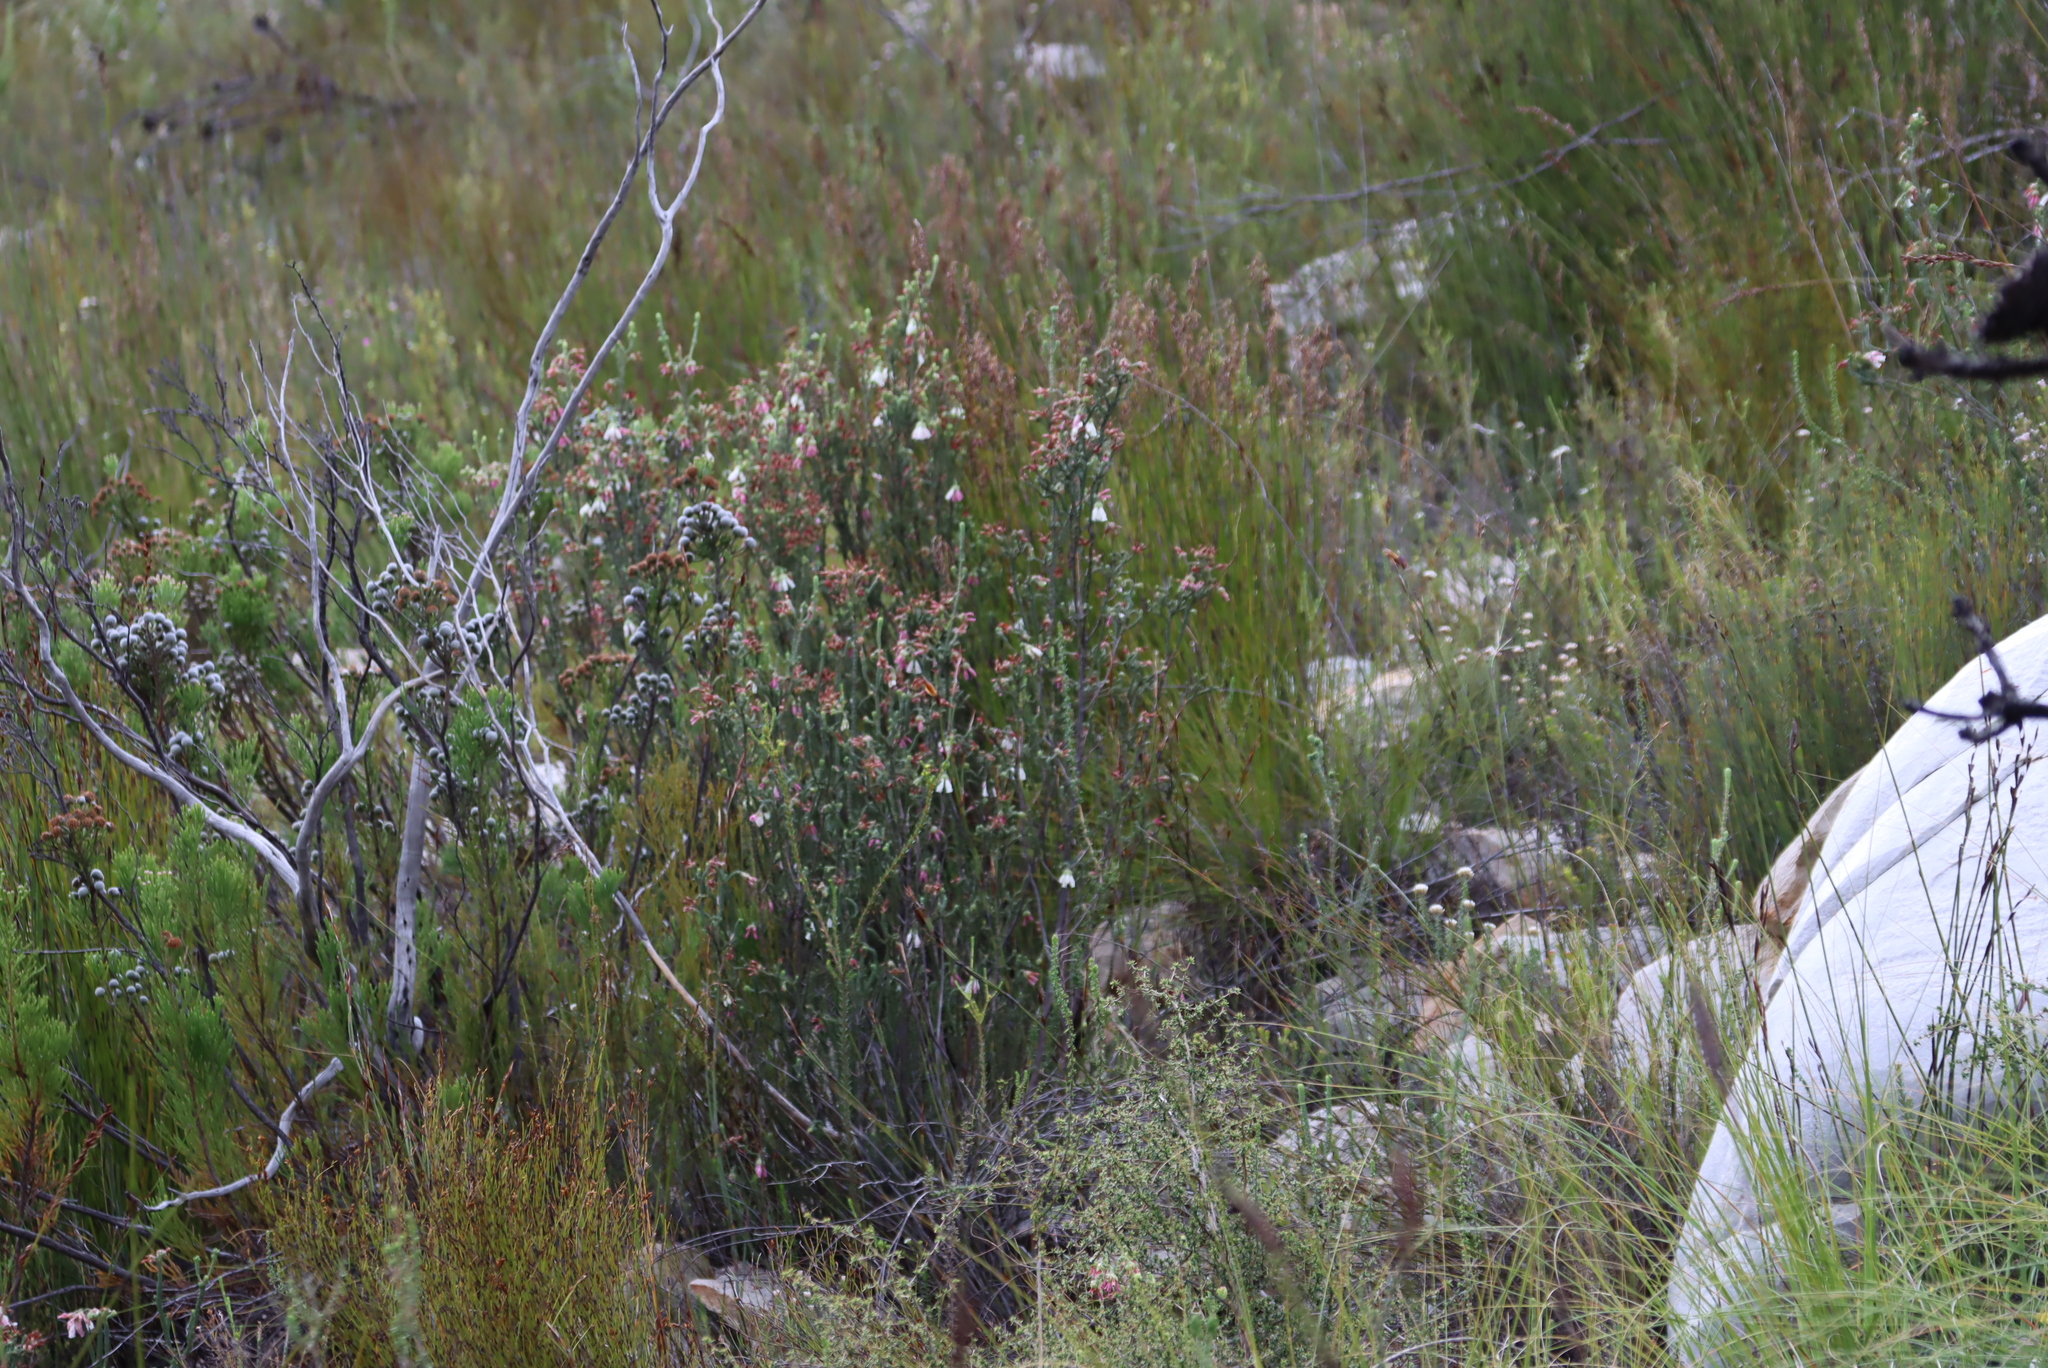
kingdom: Plantae
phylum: Tracheophyta
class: Magnoliopsida
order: Ericales
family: Ericaceae
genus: Erica
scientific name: Erica pectinifolia
